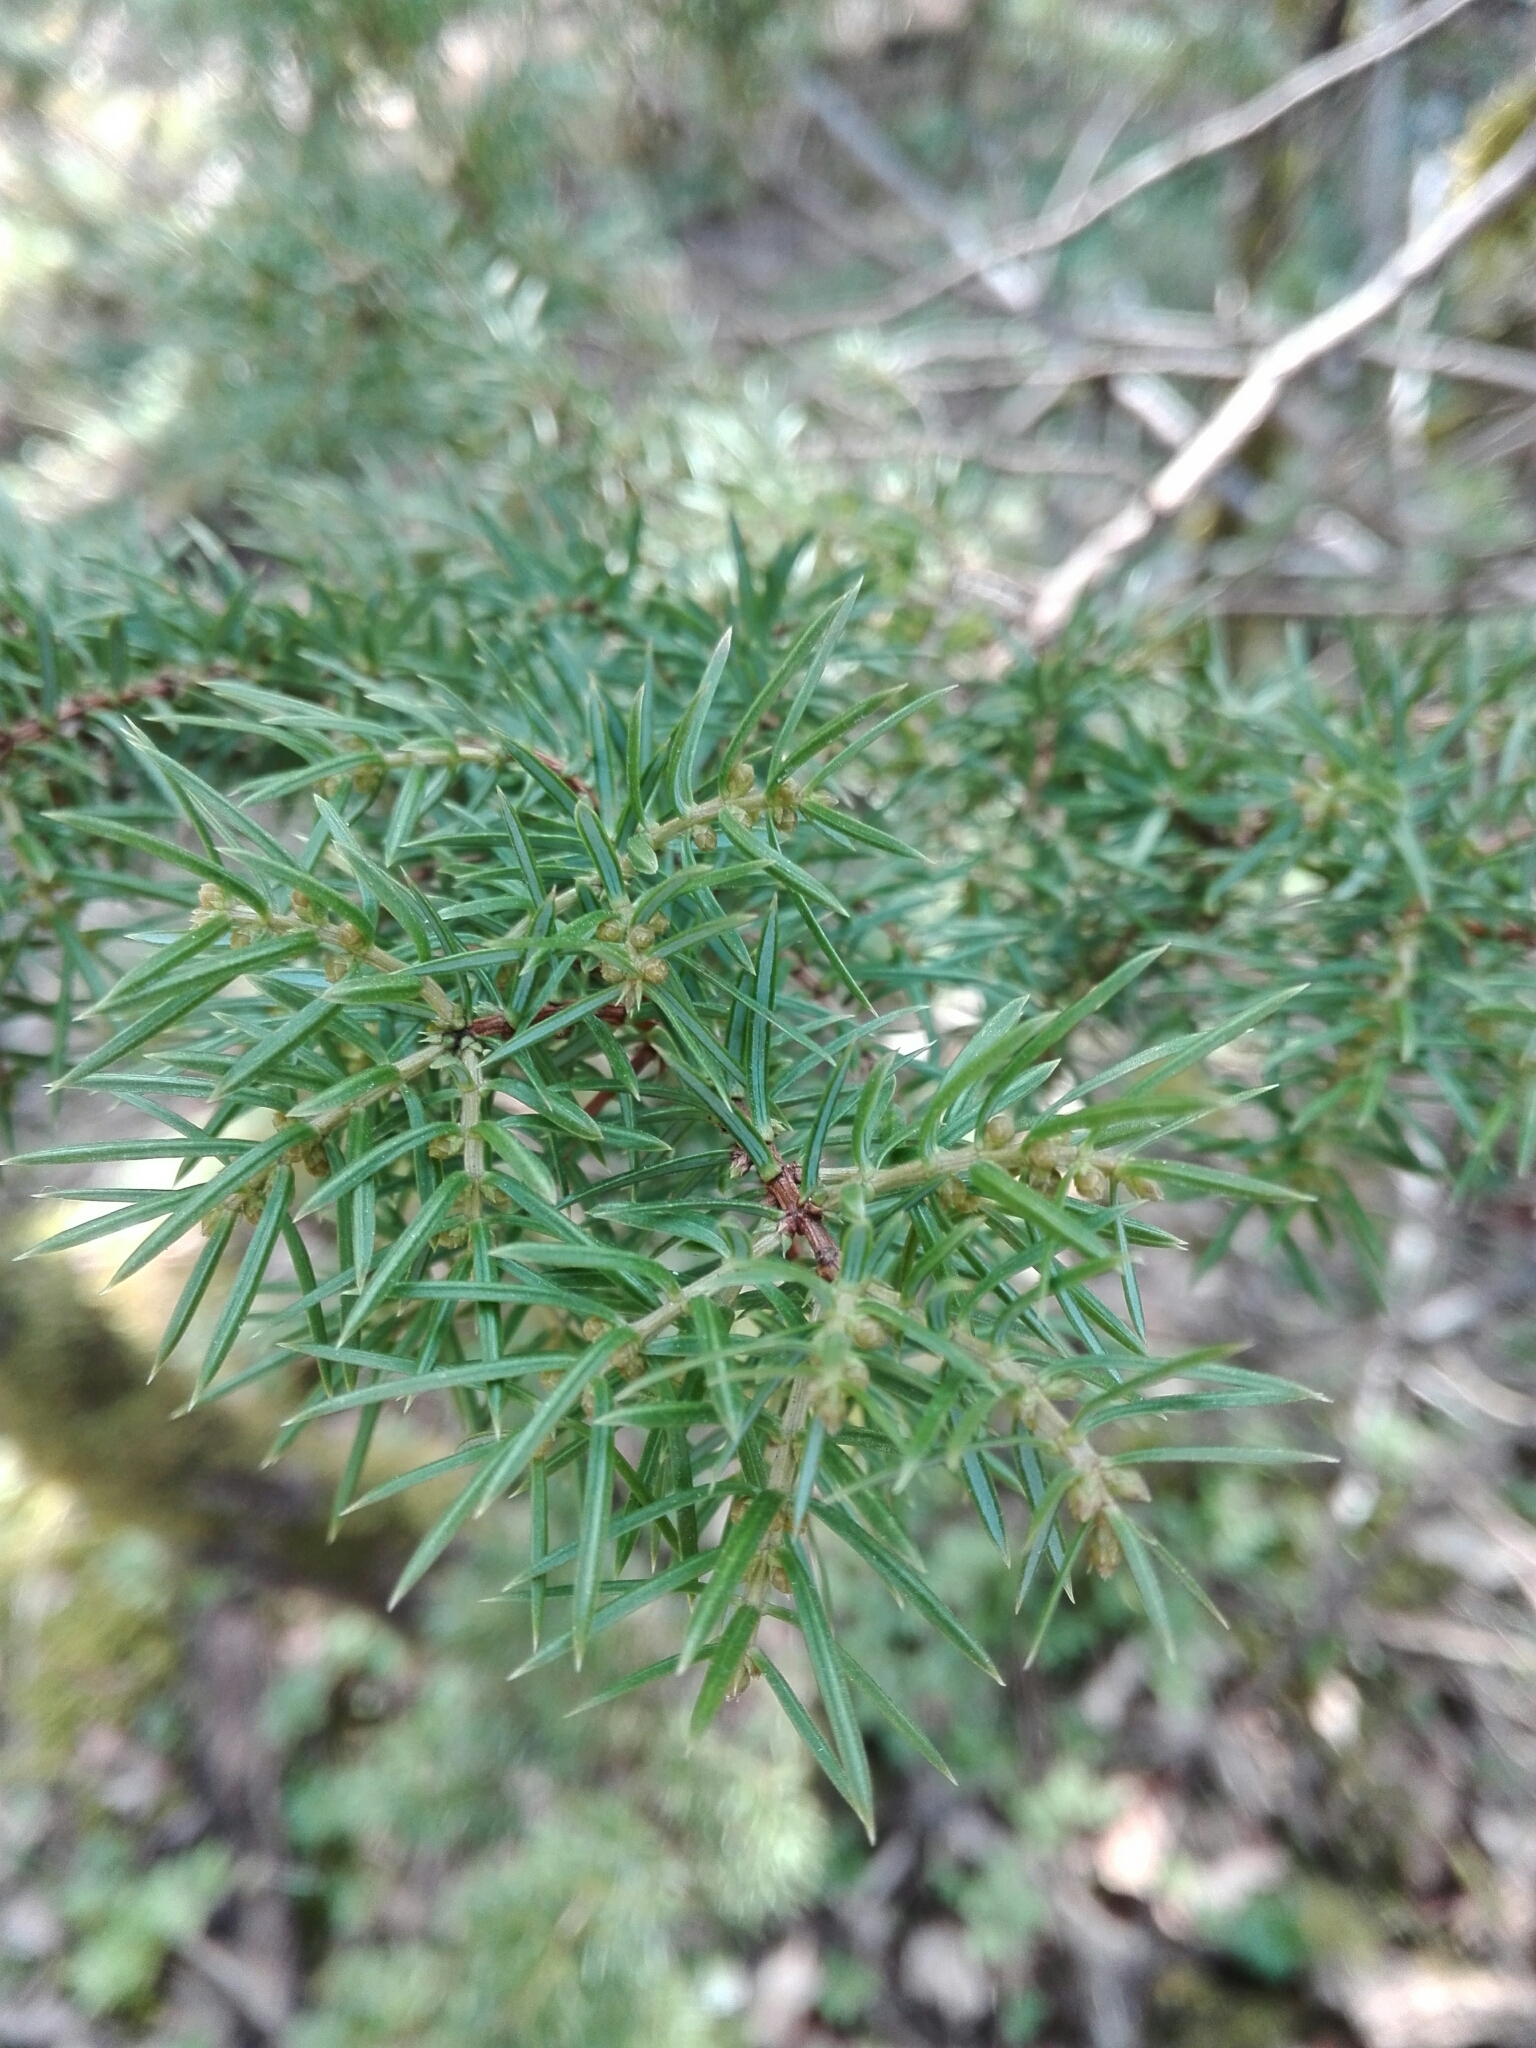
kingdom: Plantae
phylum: Tracheophyta
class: Pinopsida
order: Pinales
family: Cupressaceae
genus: Juniperus
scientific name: Juniperus communis
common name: Common juniper
